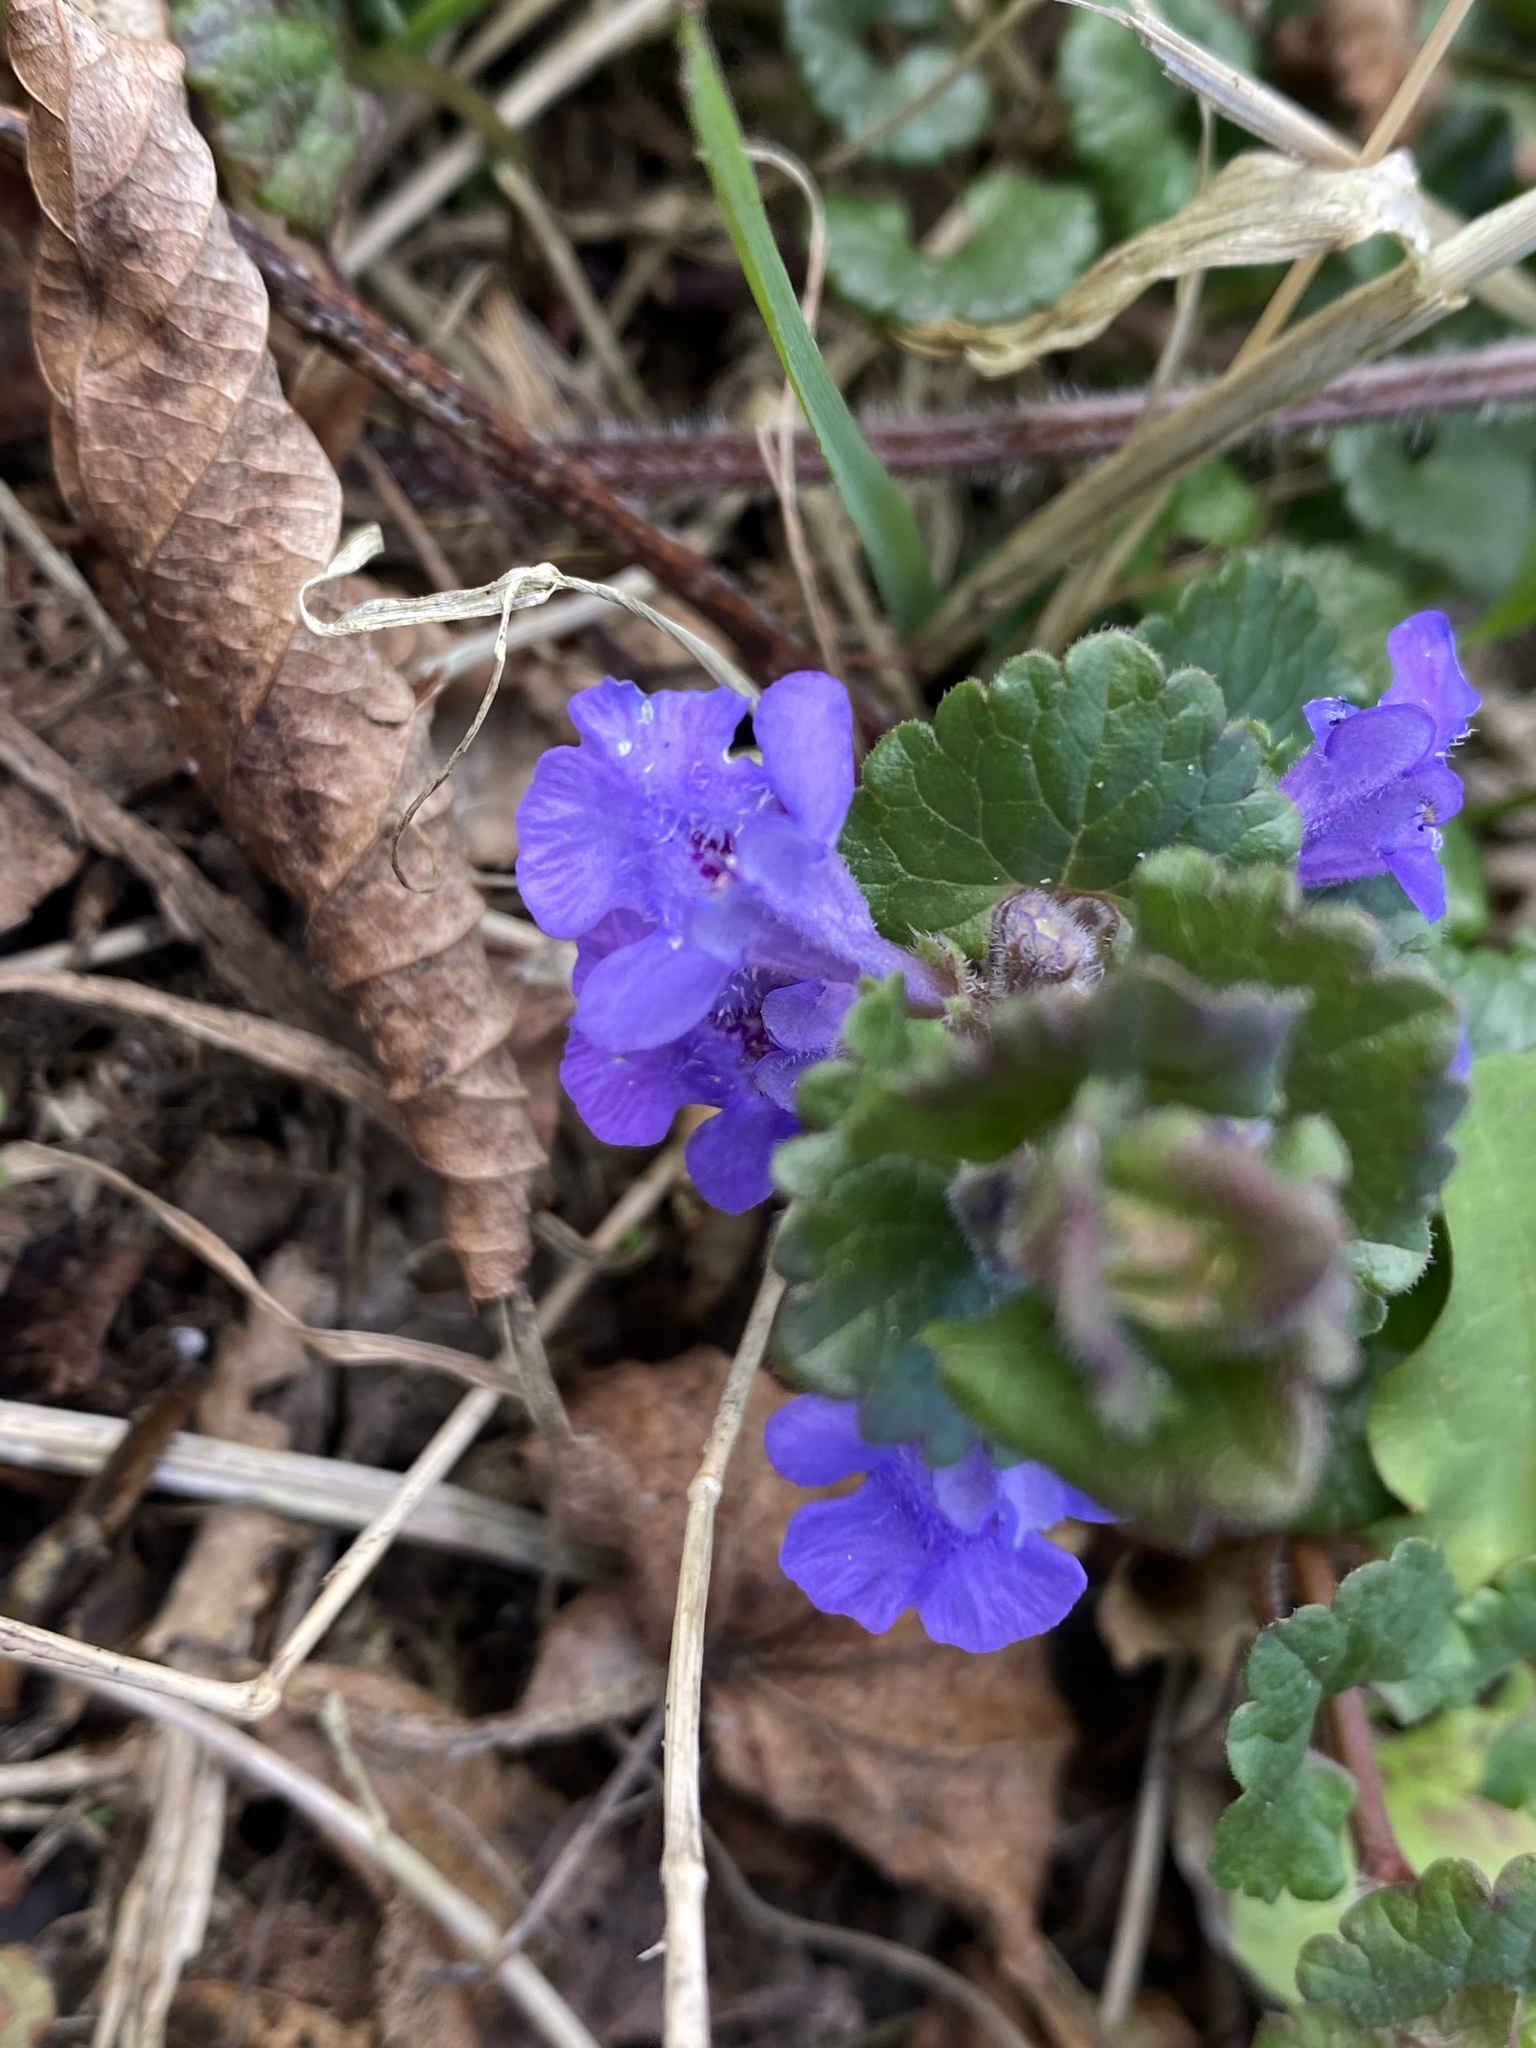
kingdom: Plantae
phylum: Tracheophyta
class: Magnoliopsida
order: Lamiales
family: Lamiaceae
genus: Glechoma
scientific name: Glechoma hederacea
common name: Ground ivy
